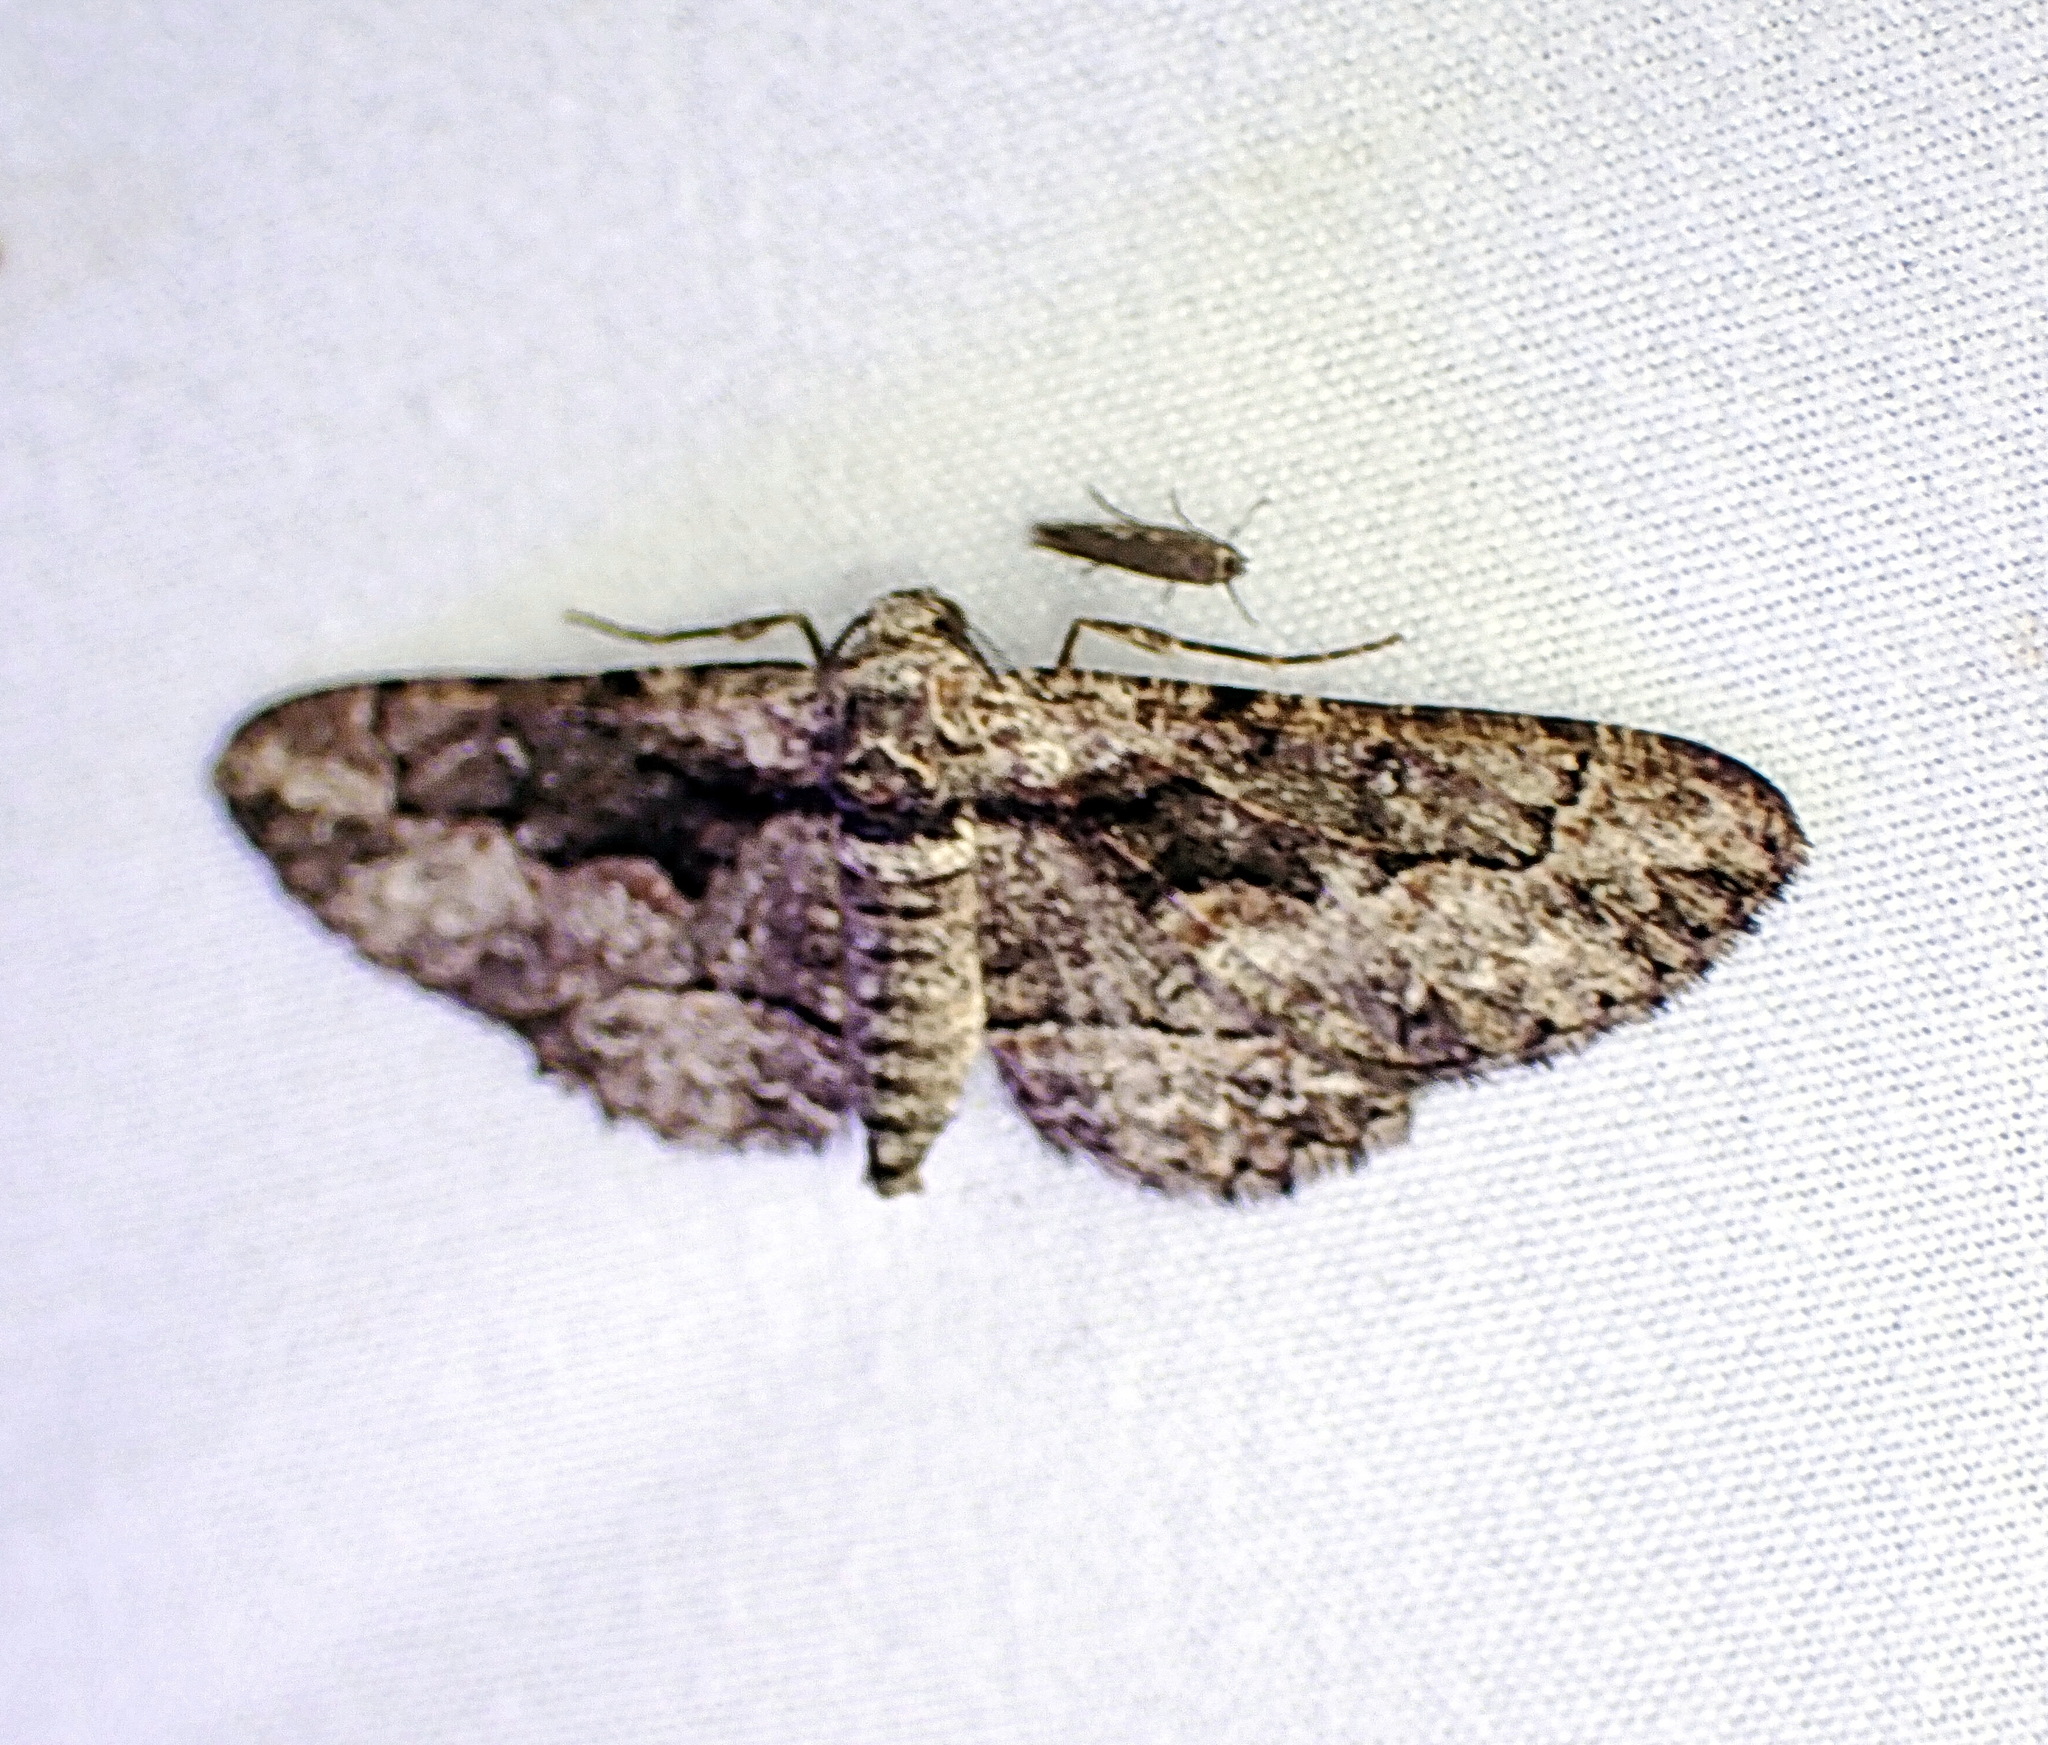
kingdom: Animalia
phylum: Arthropoda
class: Insecta
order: Lepidoptera
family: Geometridae
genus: Iridopsis
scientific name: Iridopsis dataria
